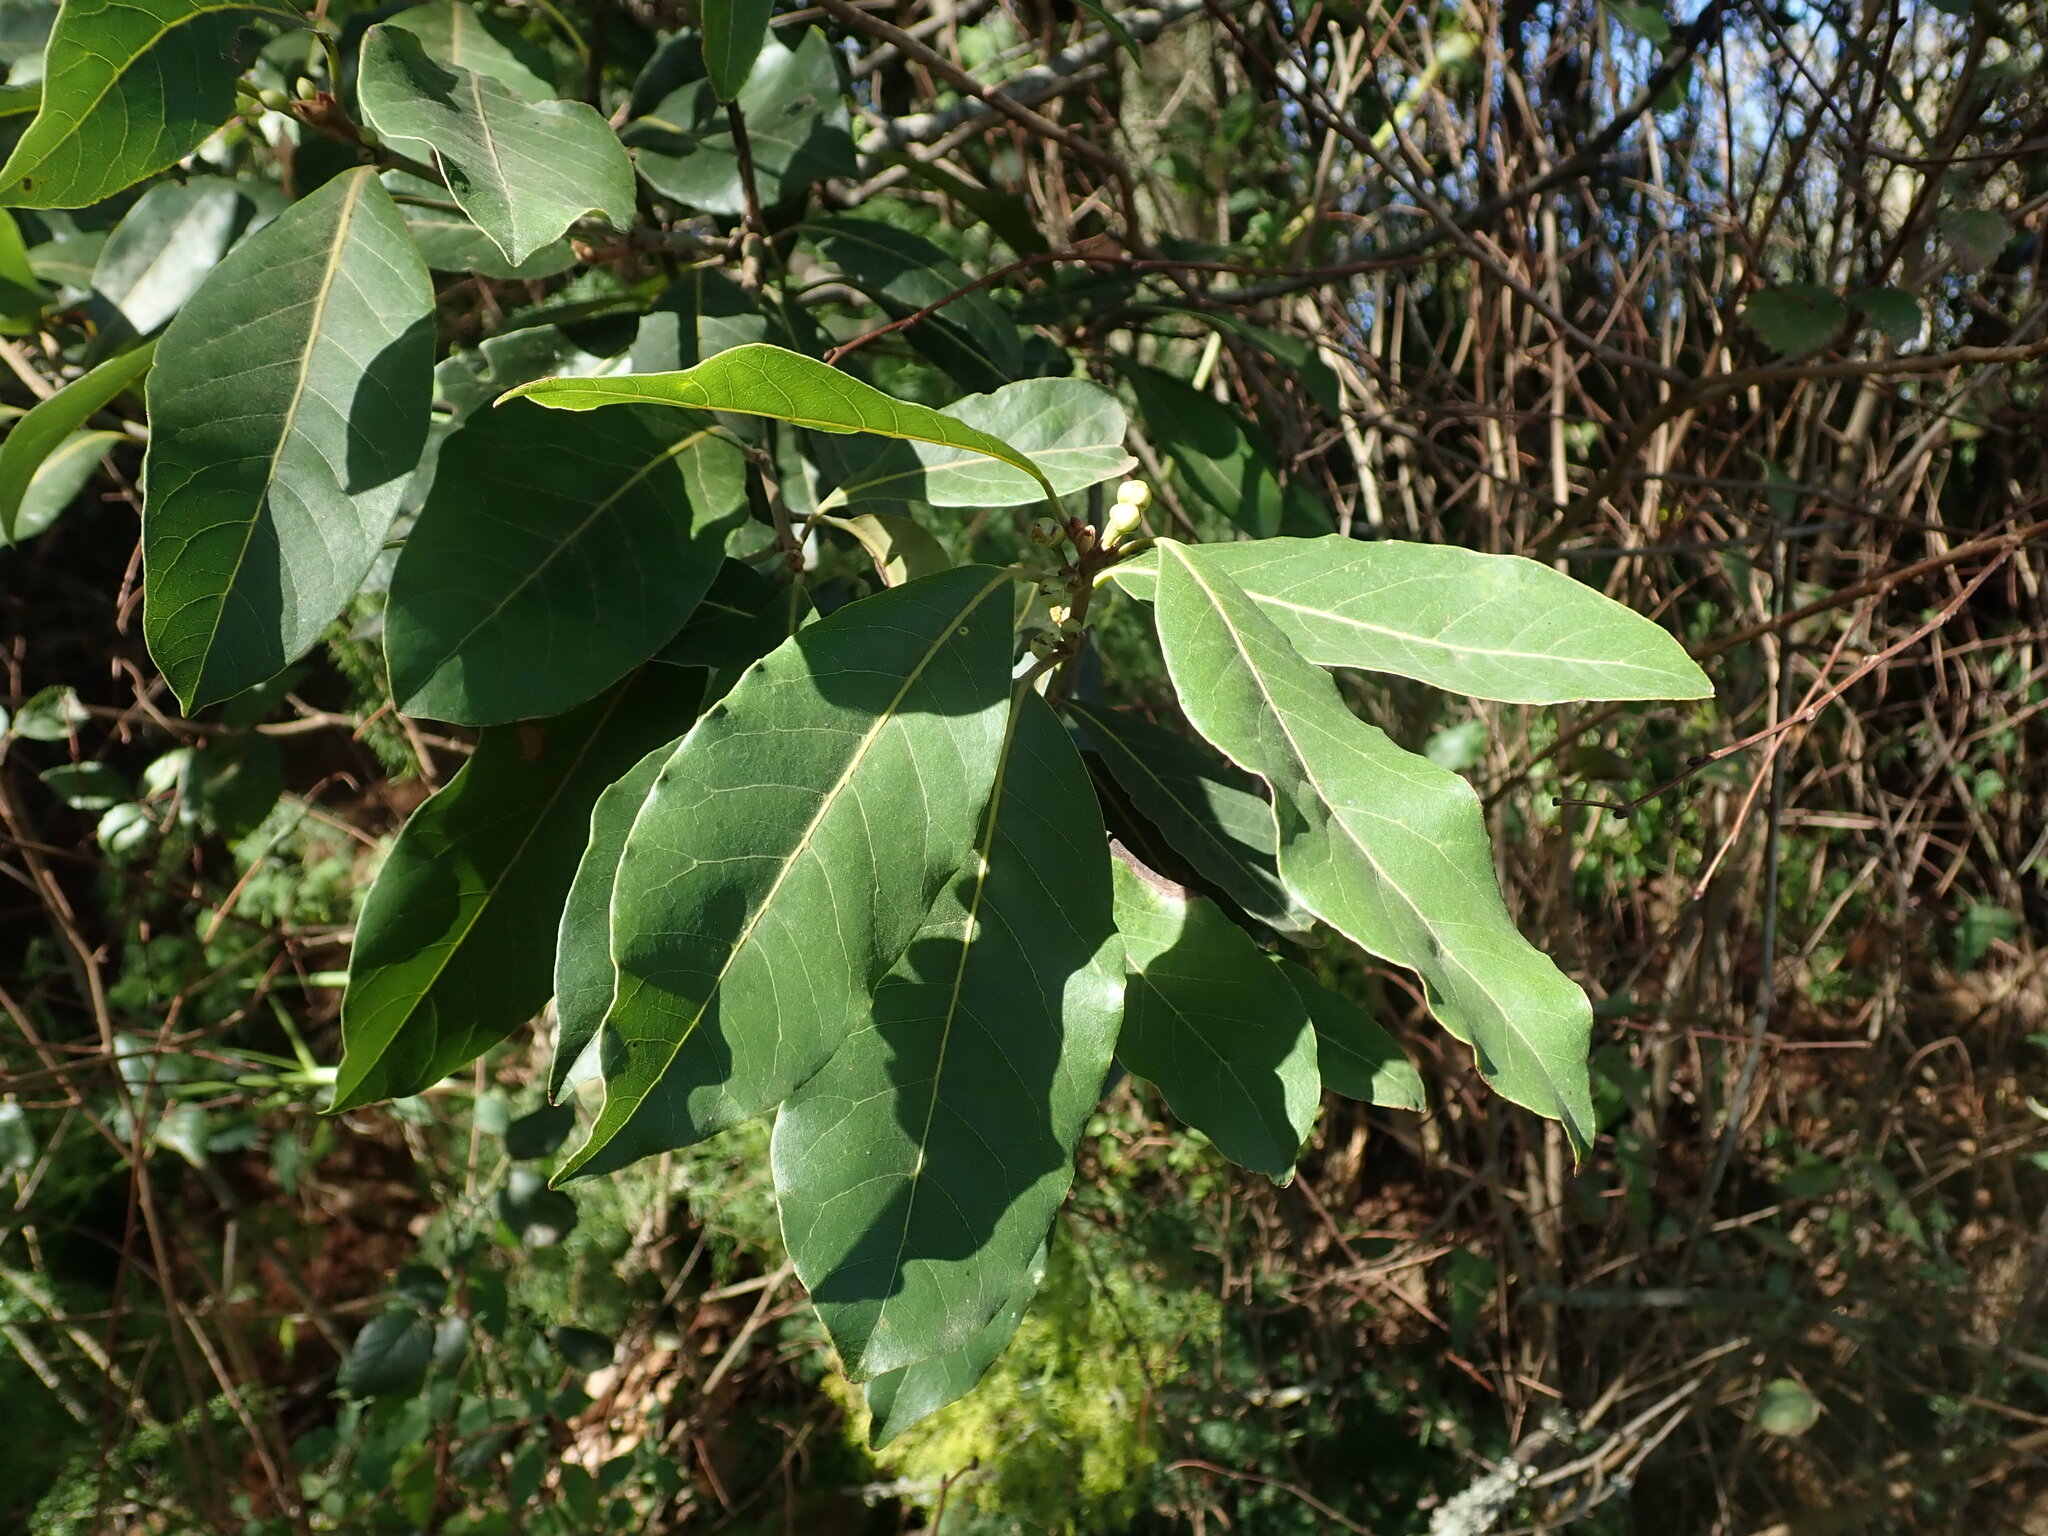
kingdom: Plantae
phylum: Tracheophyta
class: Magnoliopsida
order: Laurales
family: Lauraceae
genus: Laurus
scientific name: Laurus novocanariensis
